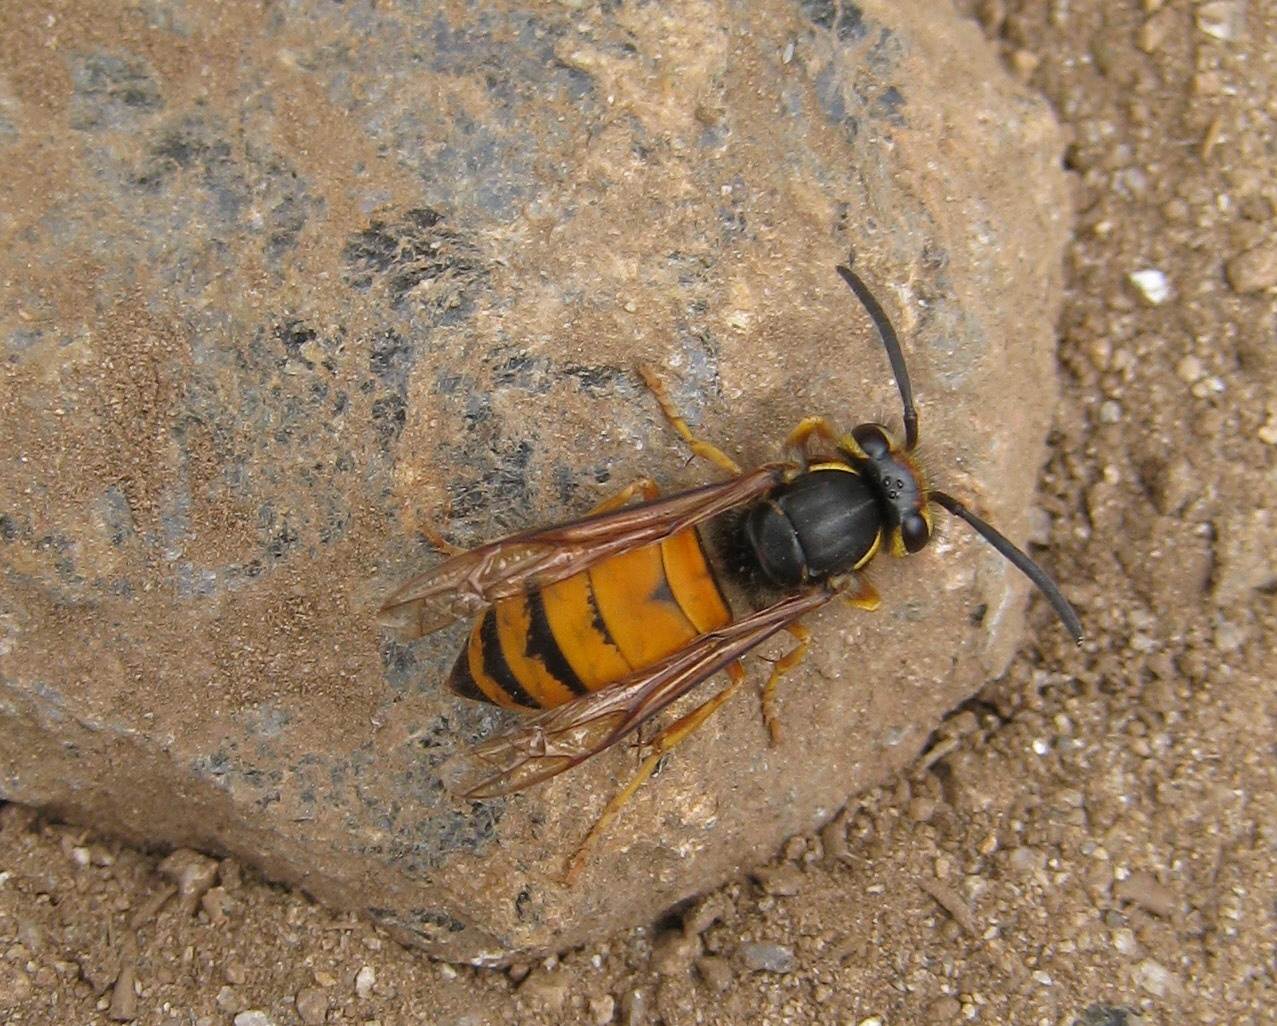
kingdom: Animalia
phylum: Arthropoda
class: Insecta
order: Hymenoptera
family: Vespidae
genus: Vespula
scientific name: Vespula structor
